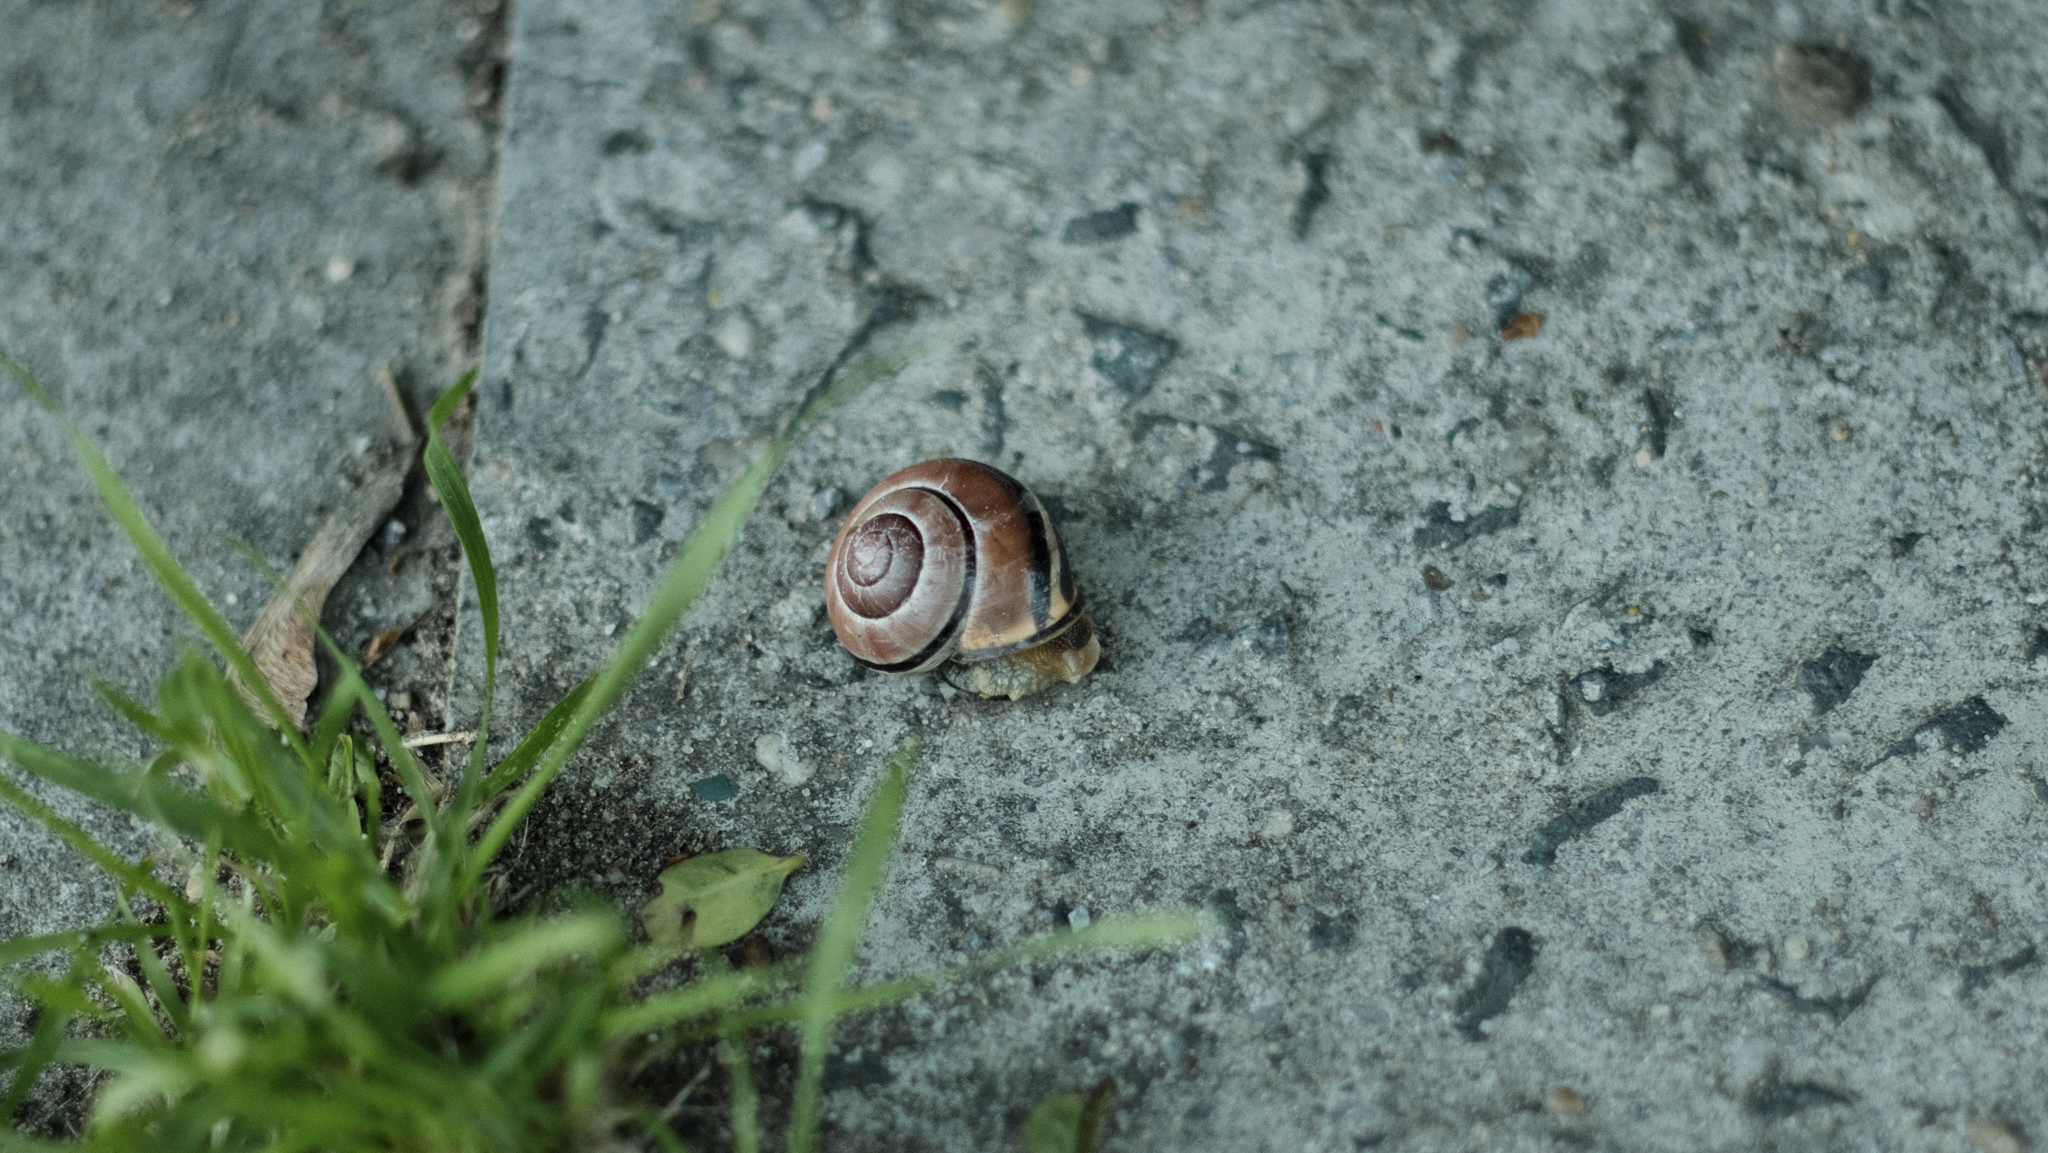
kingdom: Animalia
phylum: Mollusca
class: Gastropoda
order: Stylommatophora
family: Helicidae
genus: Cepaea
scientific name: Cepaea nemoralis
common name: Grovesnail
